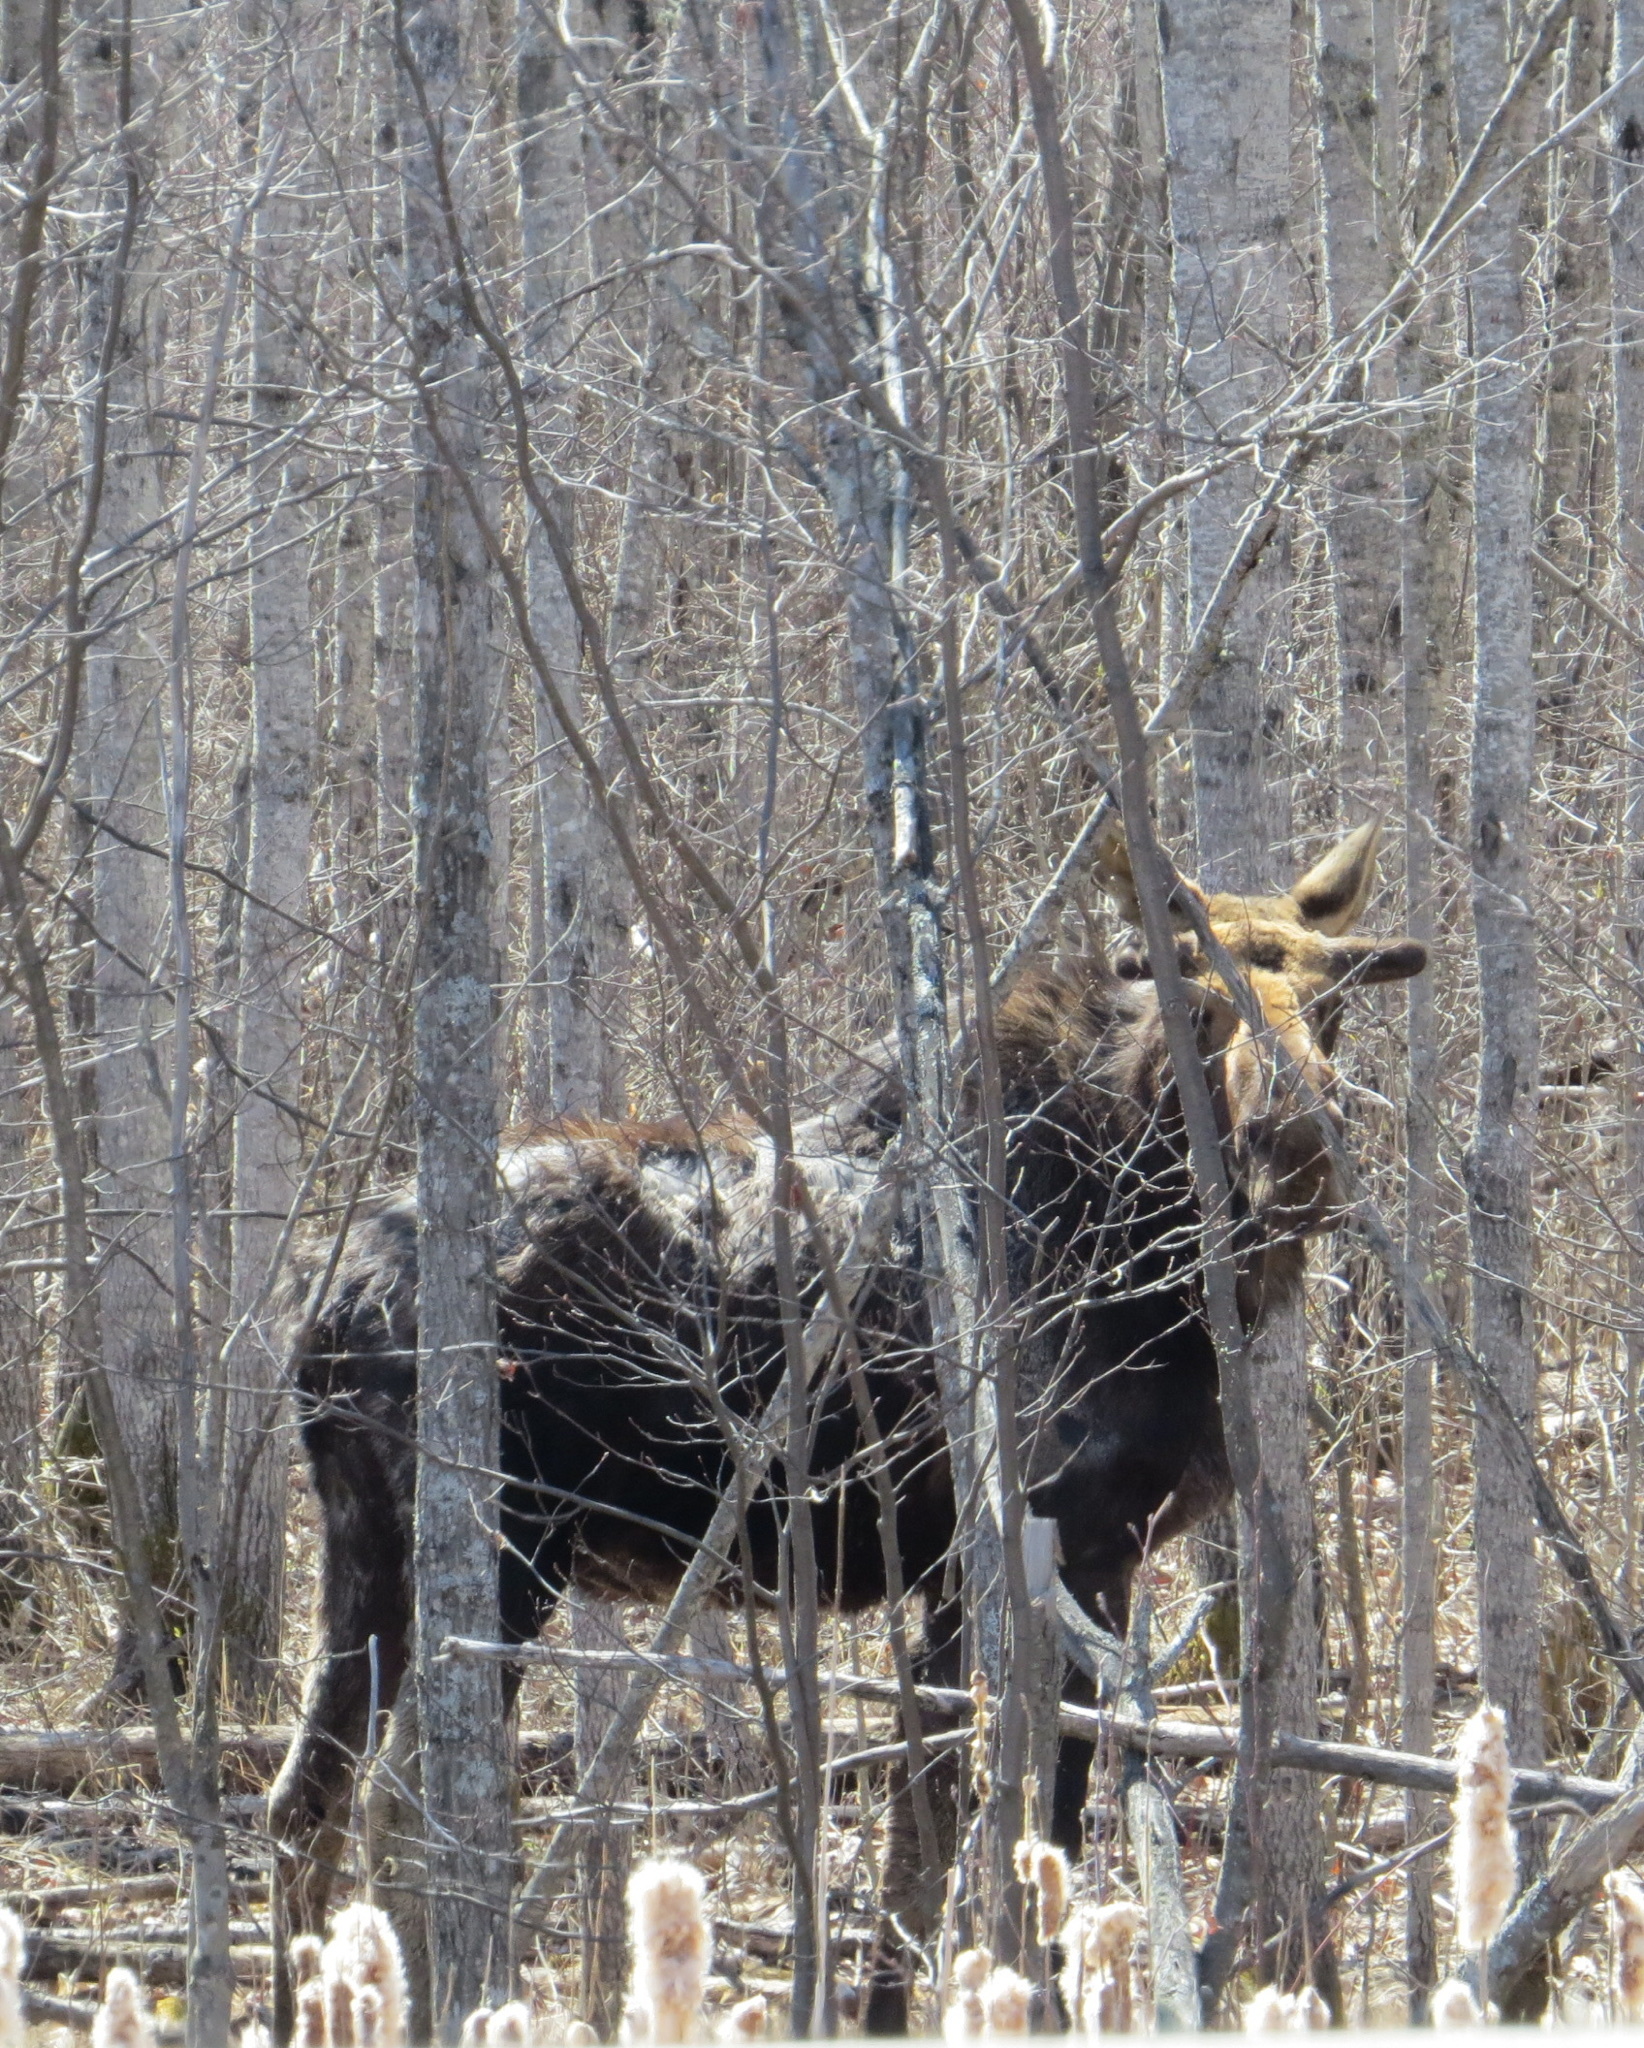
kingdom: Animalia
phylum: Chordata
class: Mammalia
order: Artiodactyla
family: Cervidae
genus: Alces
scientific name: Alces alces
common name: Moose
